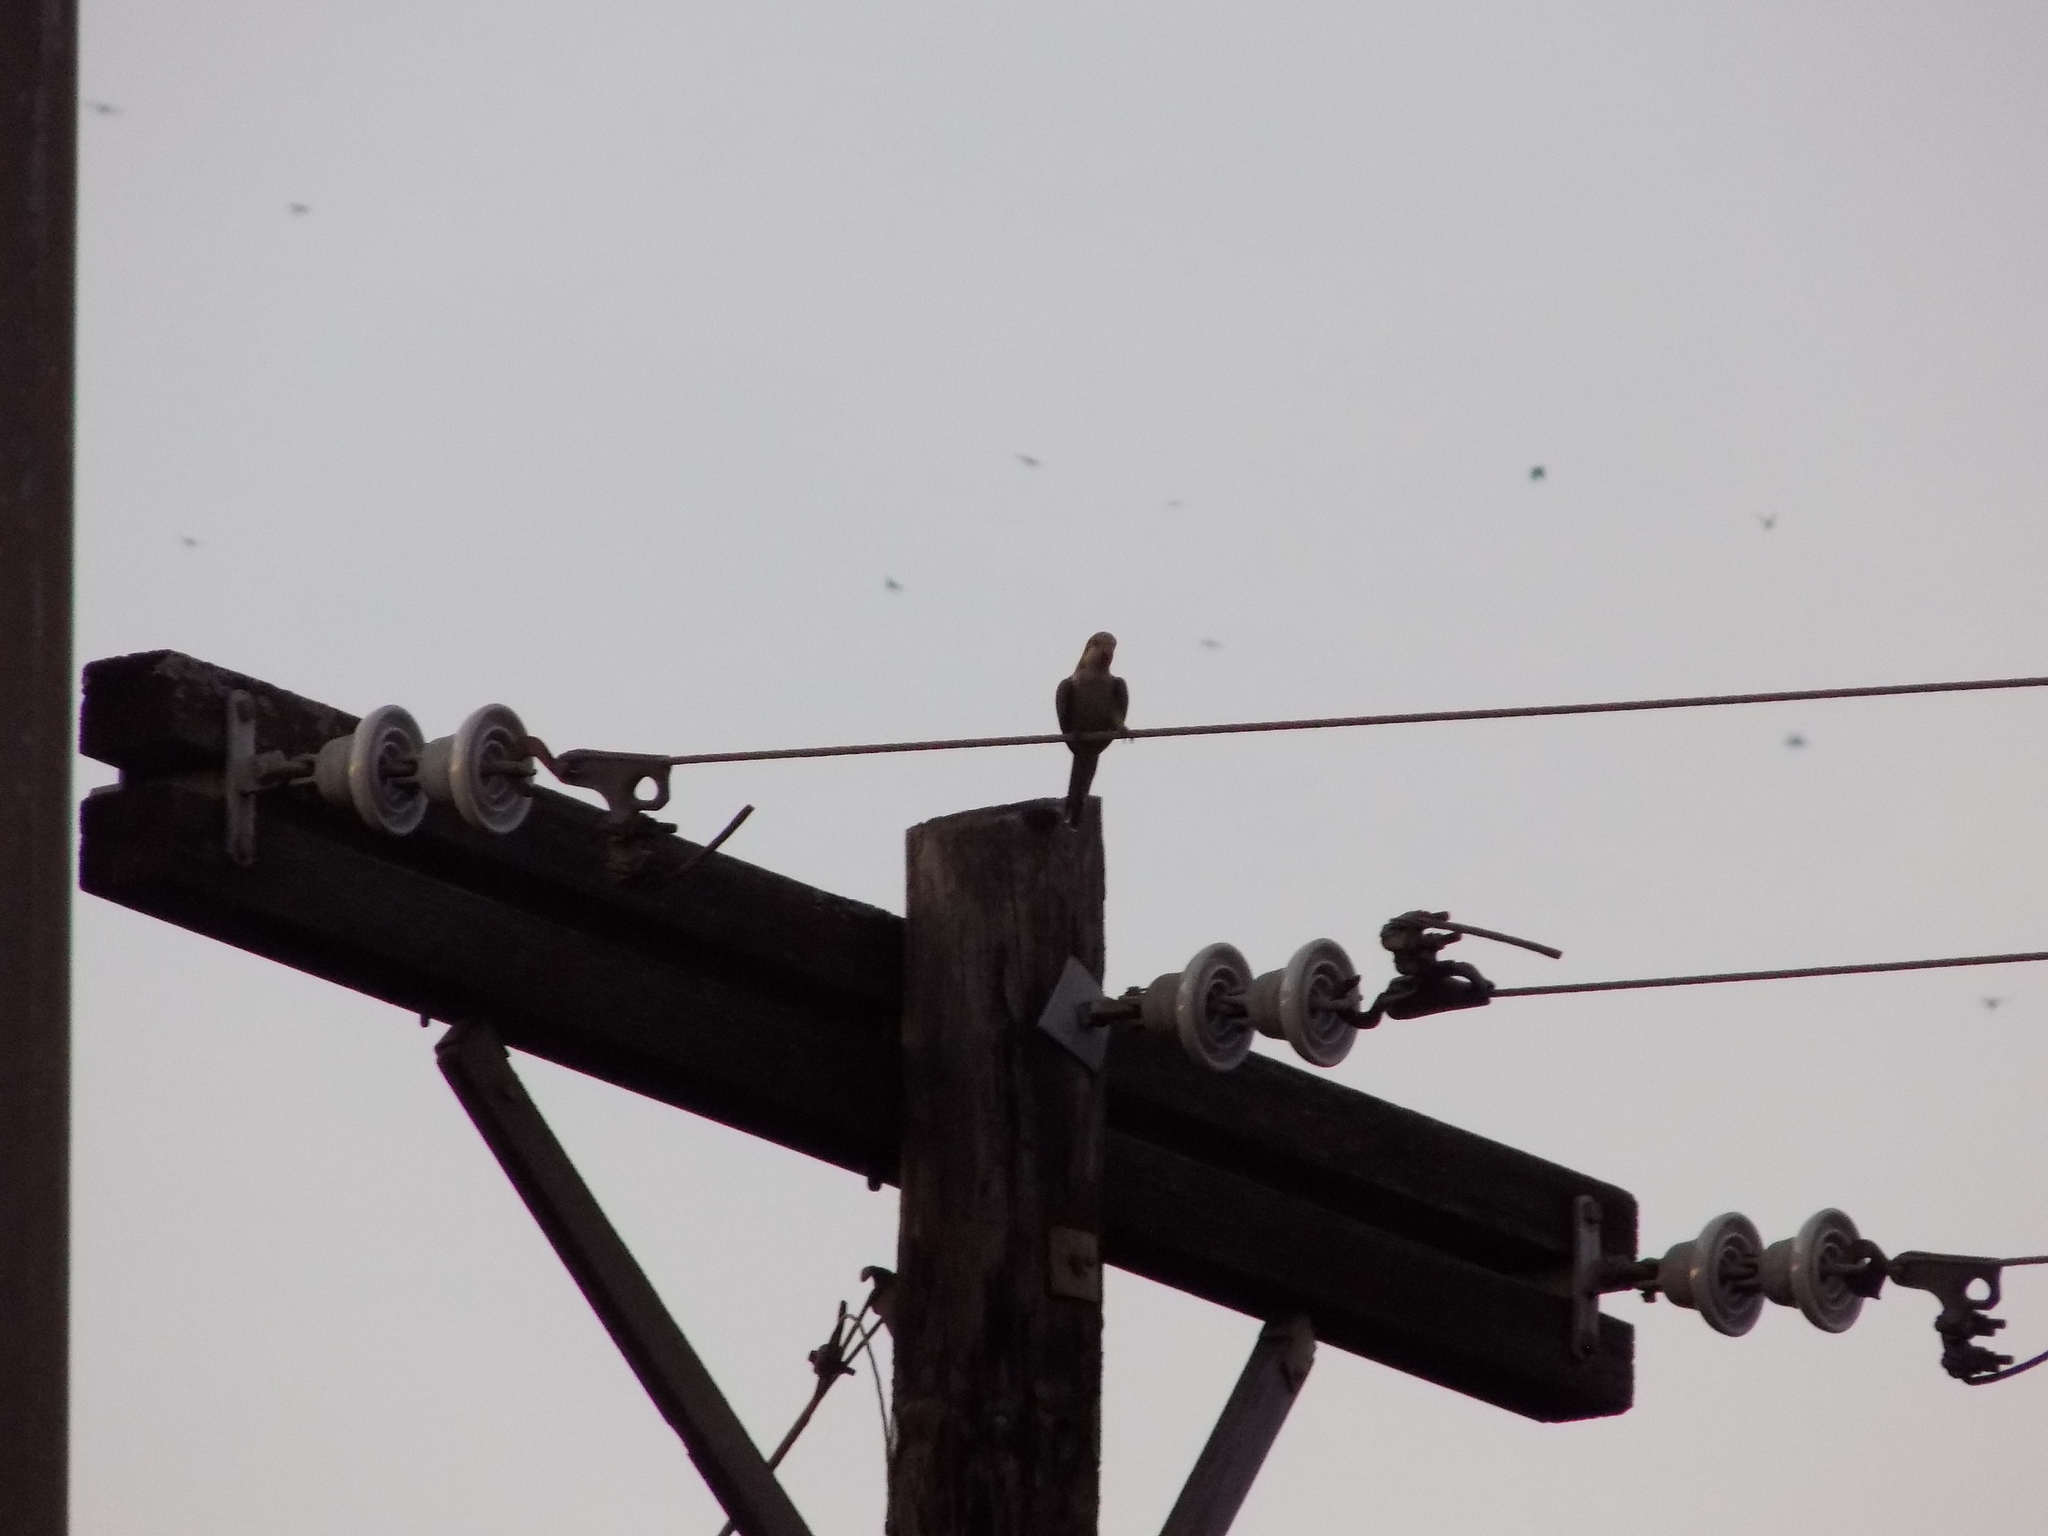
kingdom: Animalia
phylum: Chordata
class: Aves
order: Psittaciformes
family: Psittacidae
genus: Myiopsitta
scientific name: Myiopsitta monachus
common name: Monk parakeet
